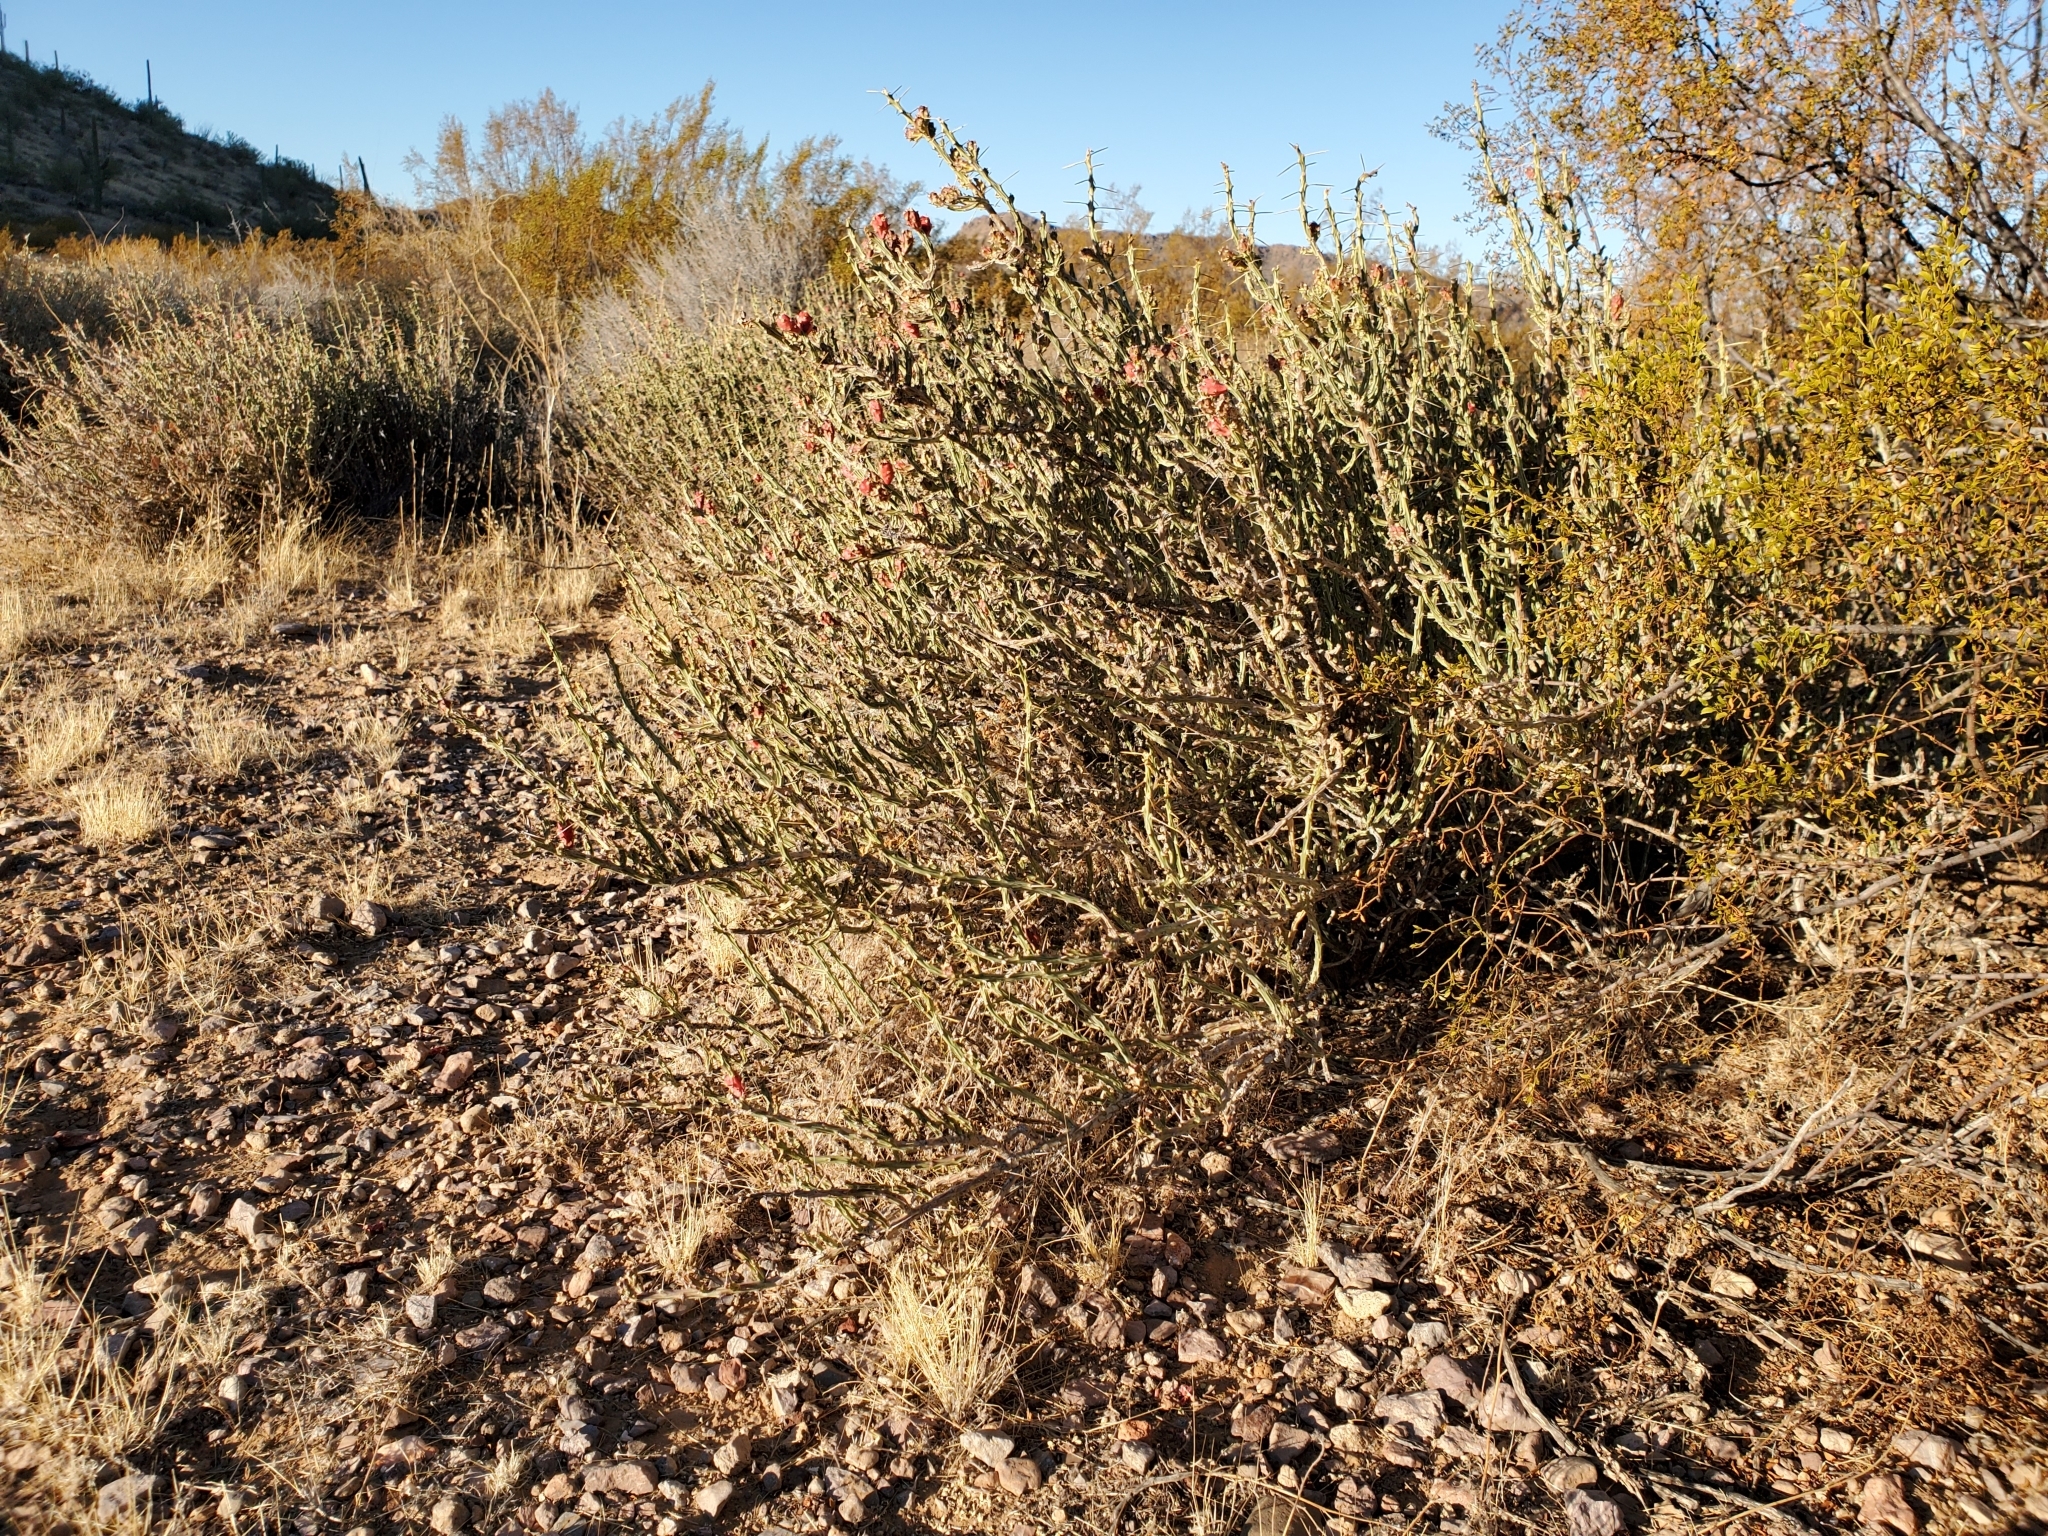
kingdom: Plantae
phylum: Tracheophyta
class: Magnoliopsida
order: Caryophyllales
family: Cactaceae
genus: Cylindropuntia
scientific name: Cylindropuntia leptocaulis
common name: Christmas cactus
